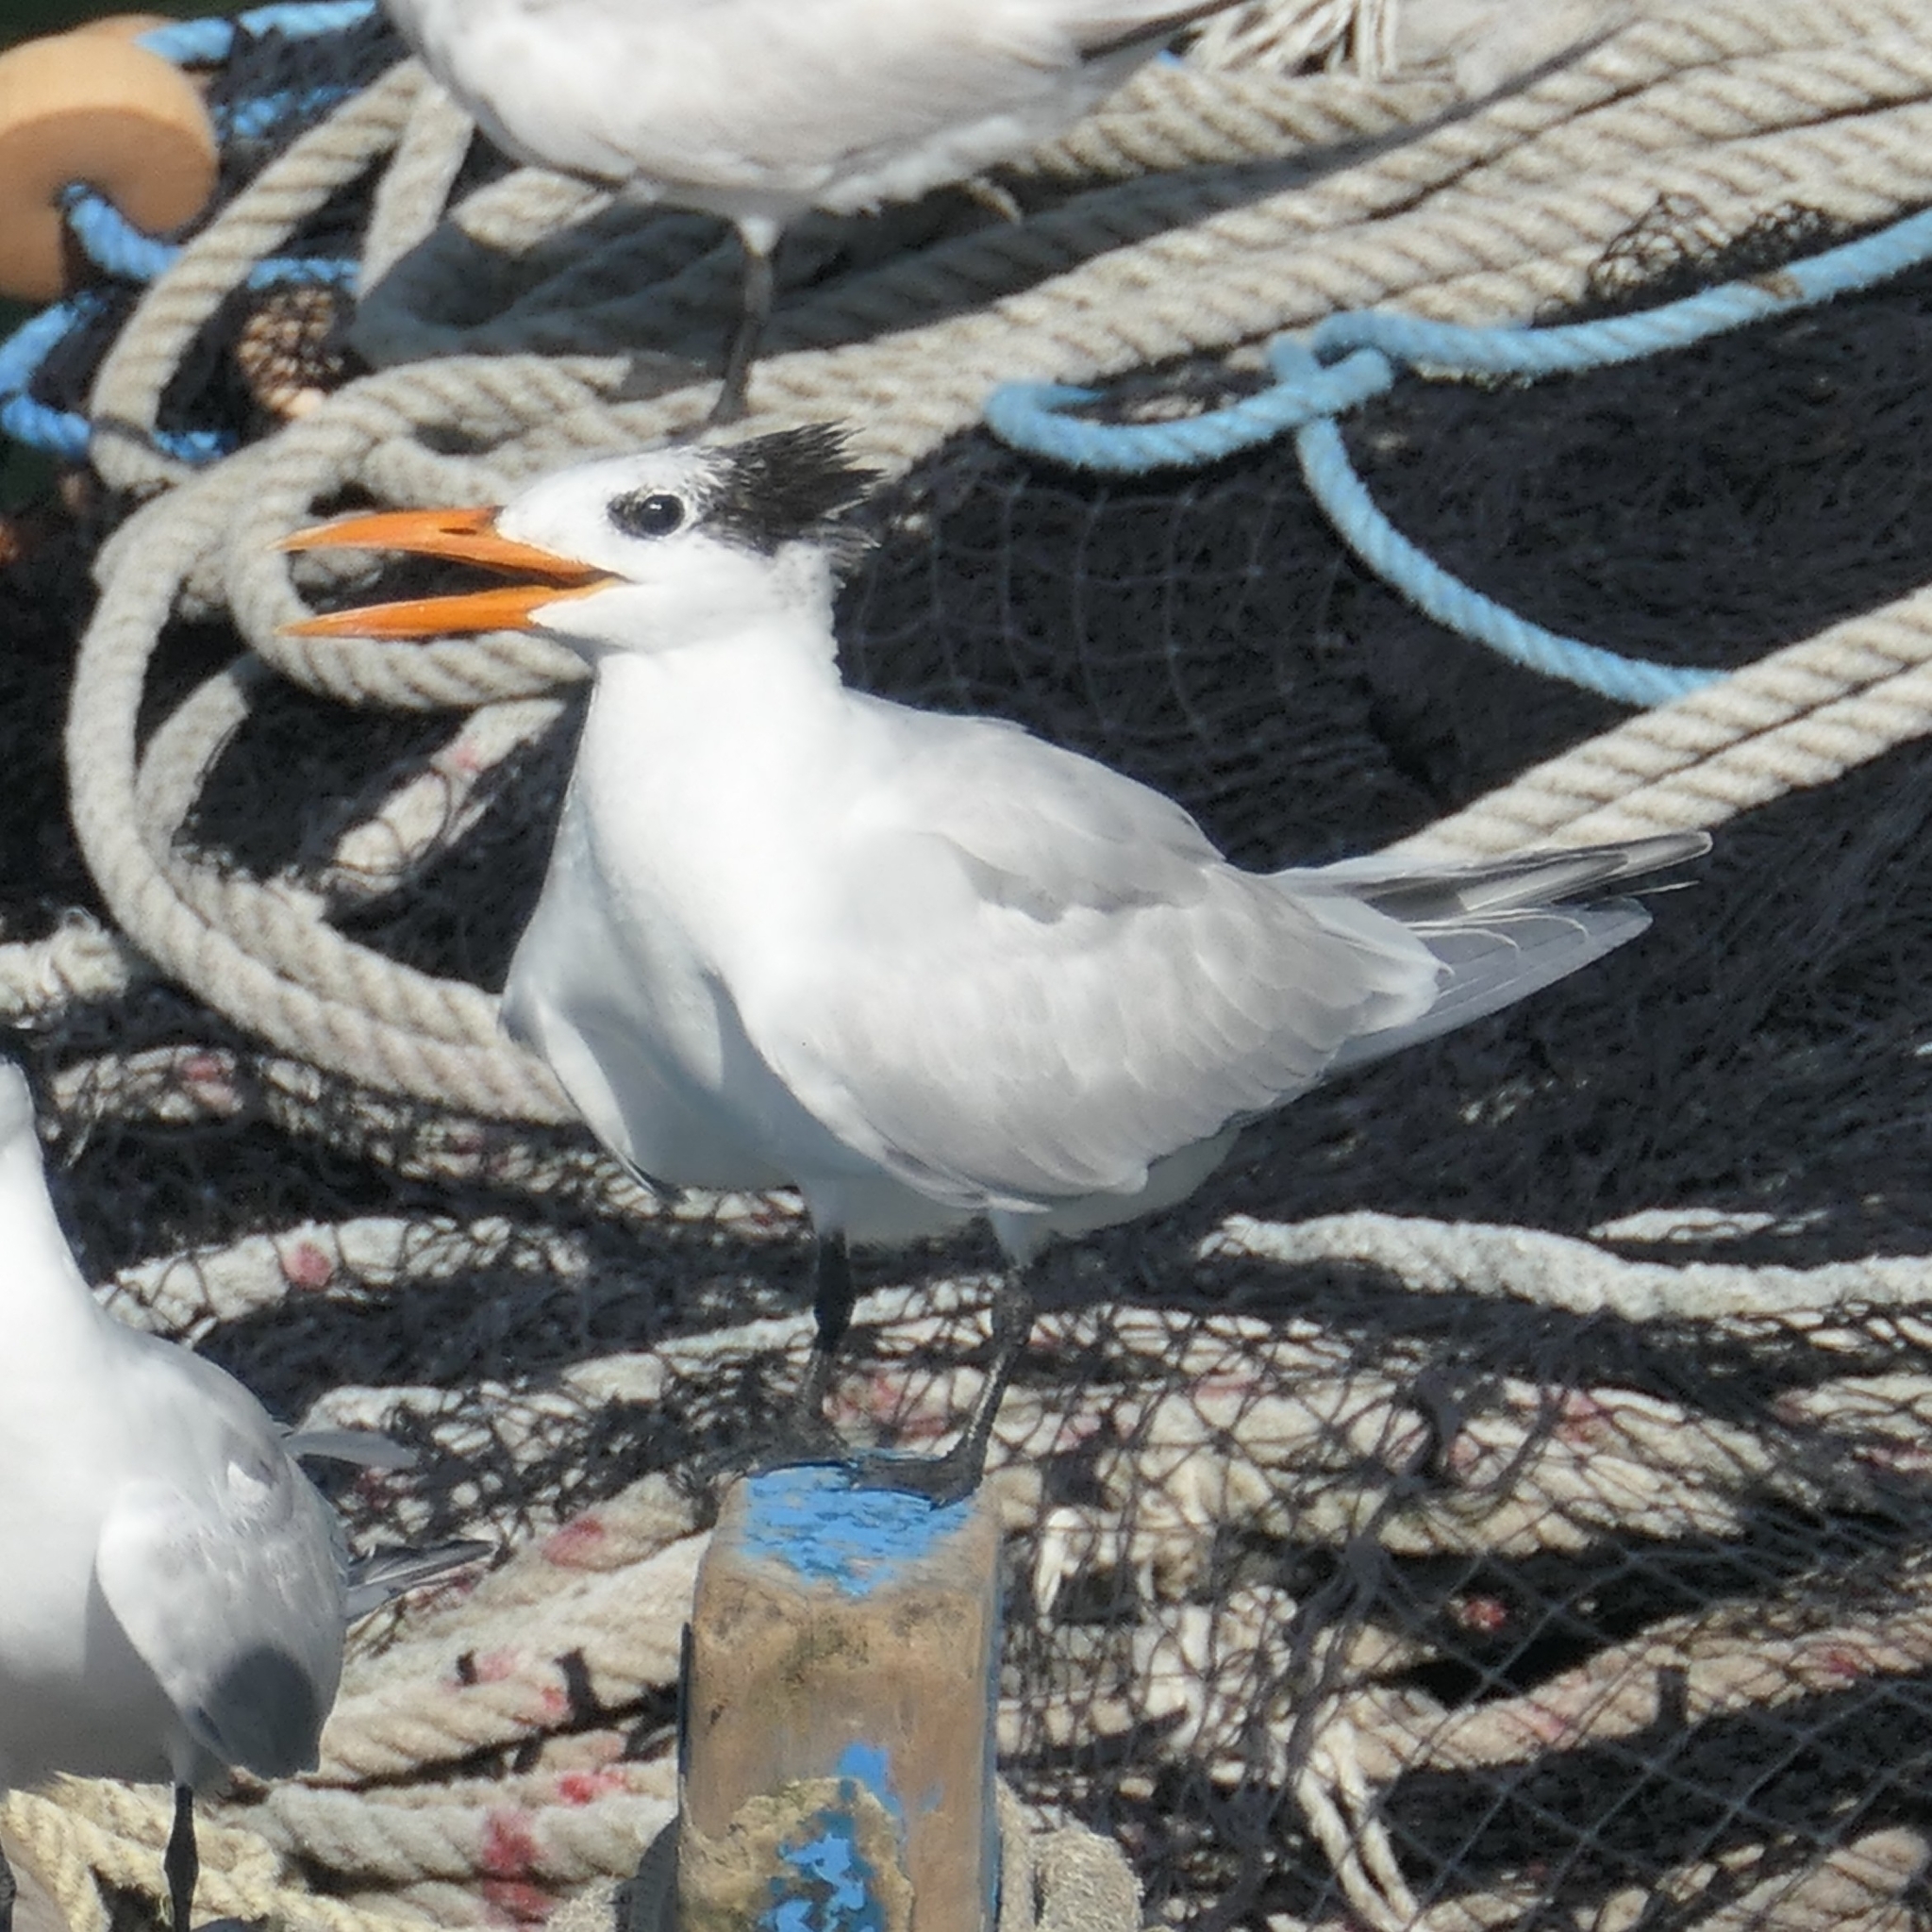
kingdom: Animalia
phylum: Chordata
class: Aves
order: Charadriiformes
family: Laridae
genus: Thalasseus
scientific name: Thalasseus maximus
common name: Royal tern
